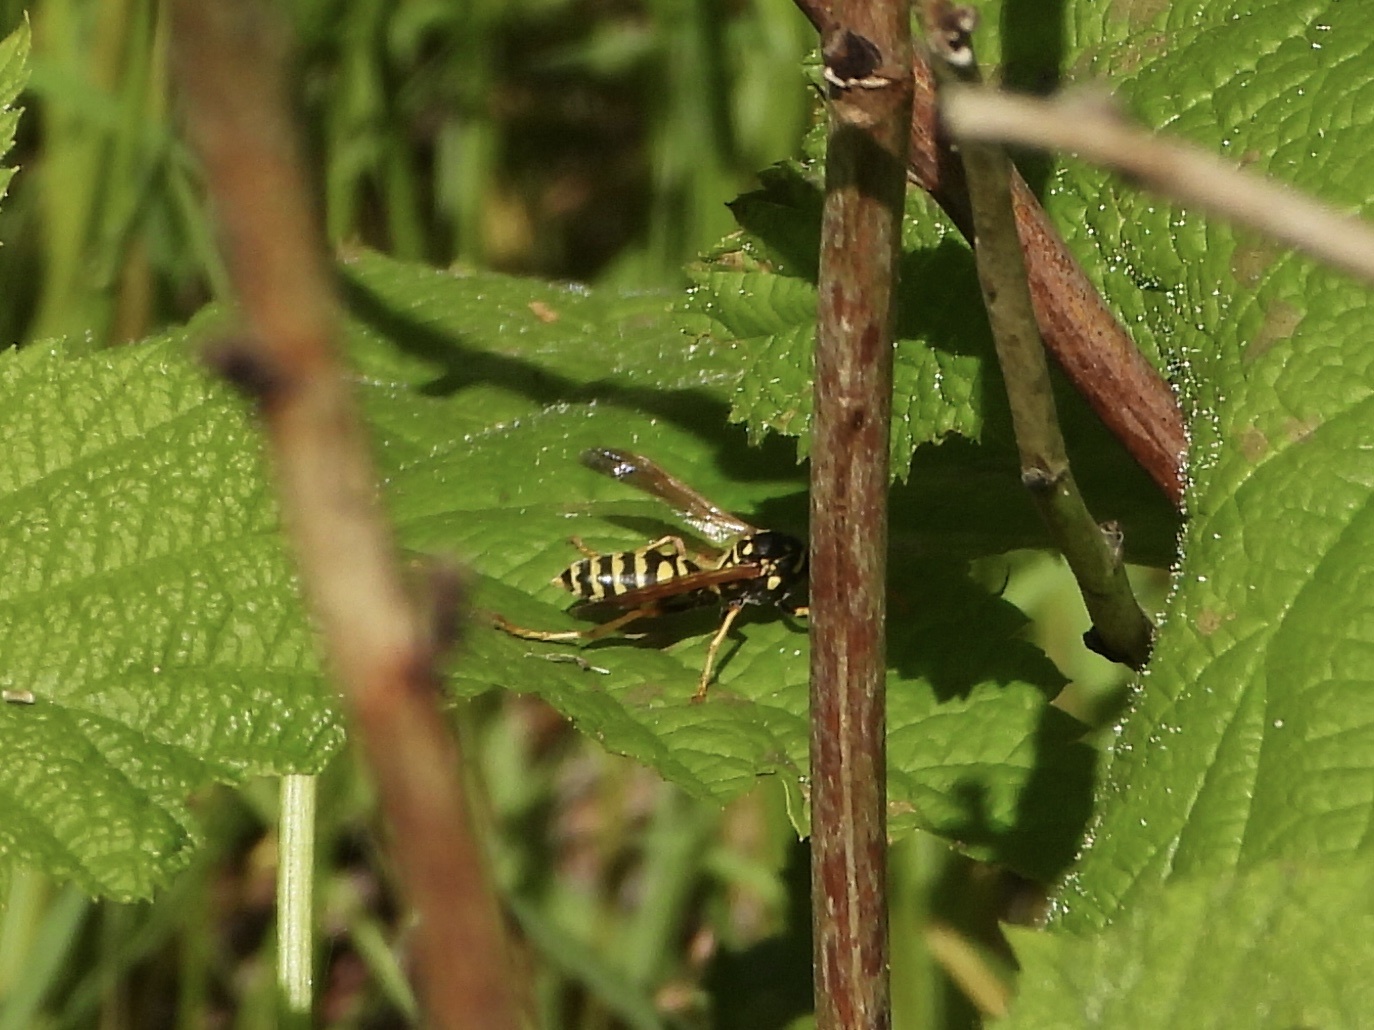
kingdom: Animalia
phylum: Arthropoda
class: Insecta
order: Hymenoptera
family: Eumenidae
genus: Polistes
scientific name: Polistes dominula
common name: Paper wasp
